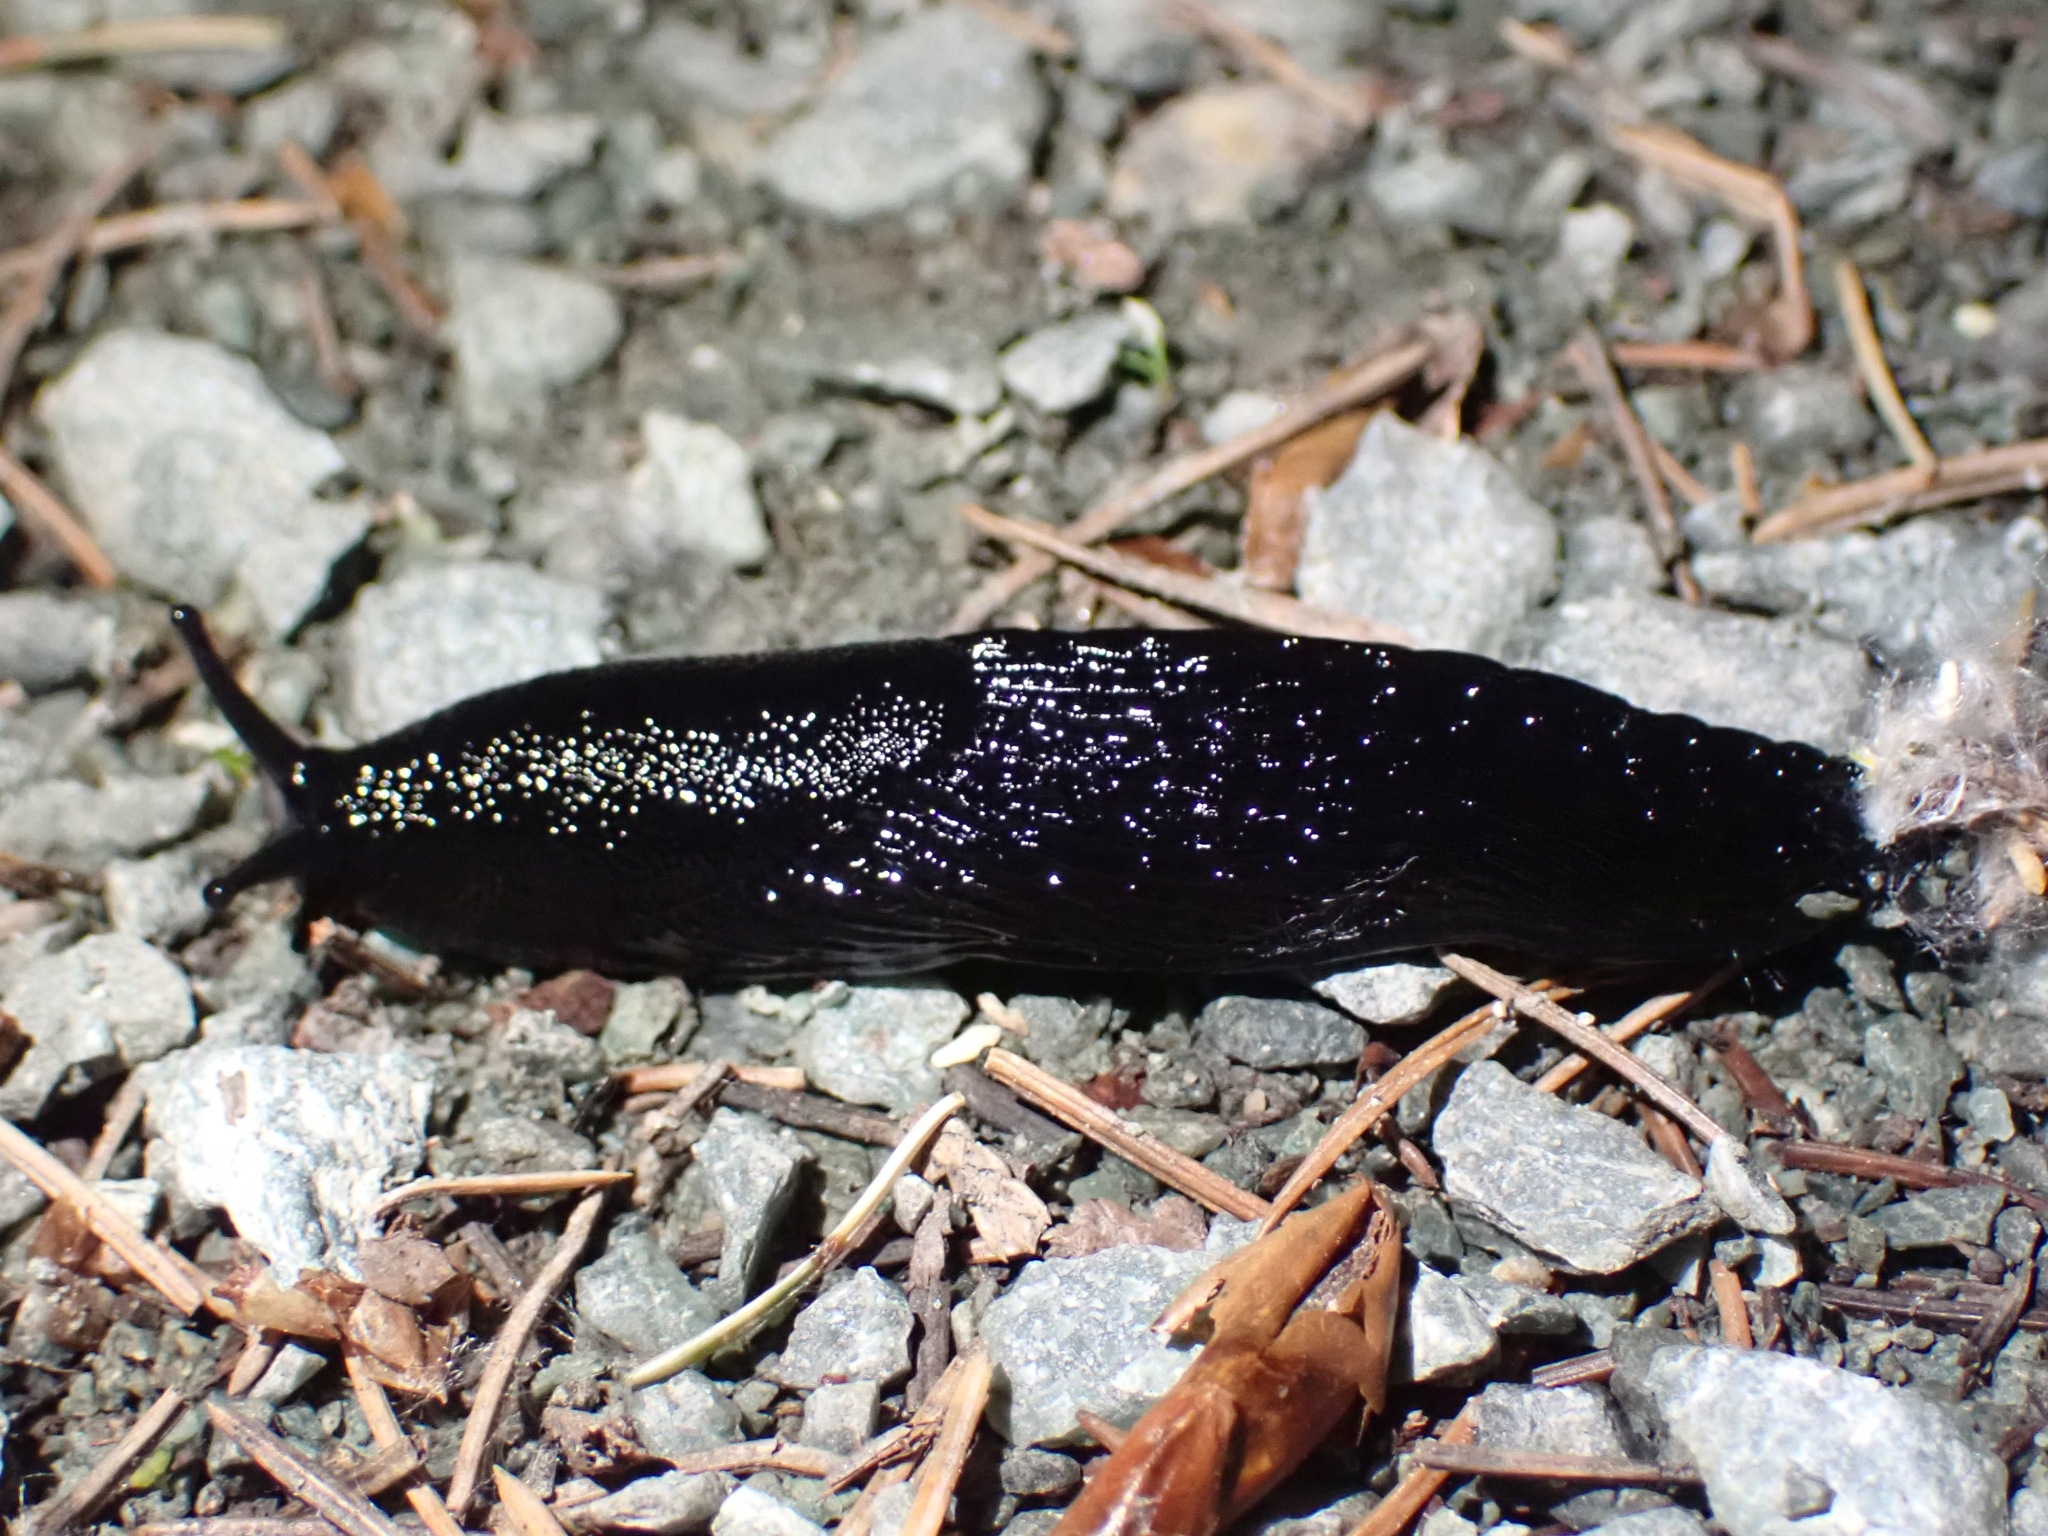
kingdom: Animalia
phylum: Mollusca
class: Gastropoda
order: Stylommatophora
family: Arionidae
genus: Arion
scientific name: Arion
